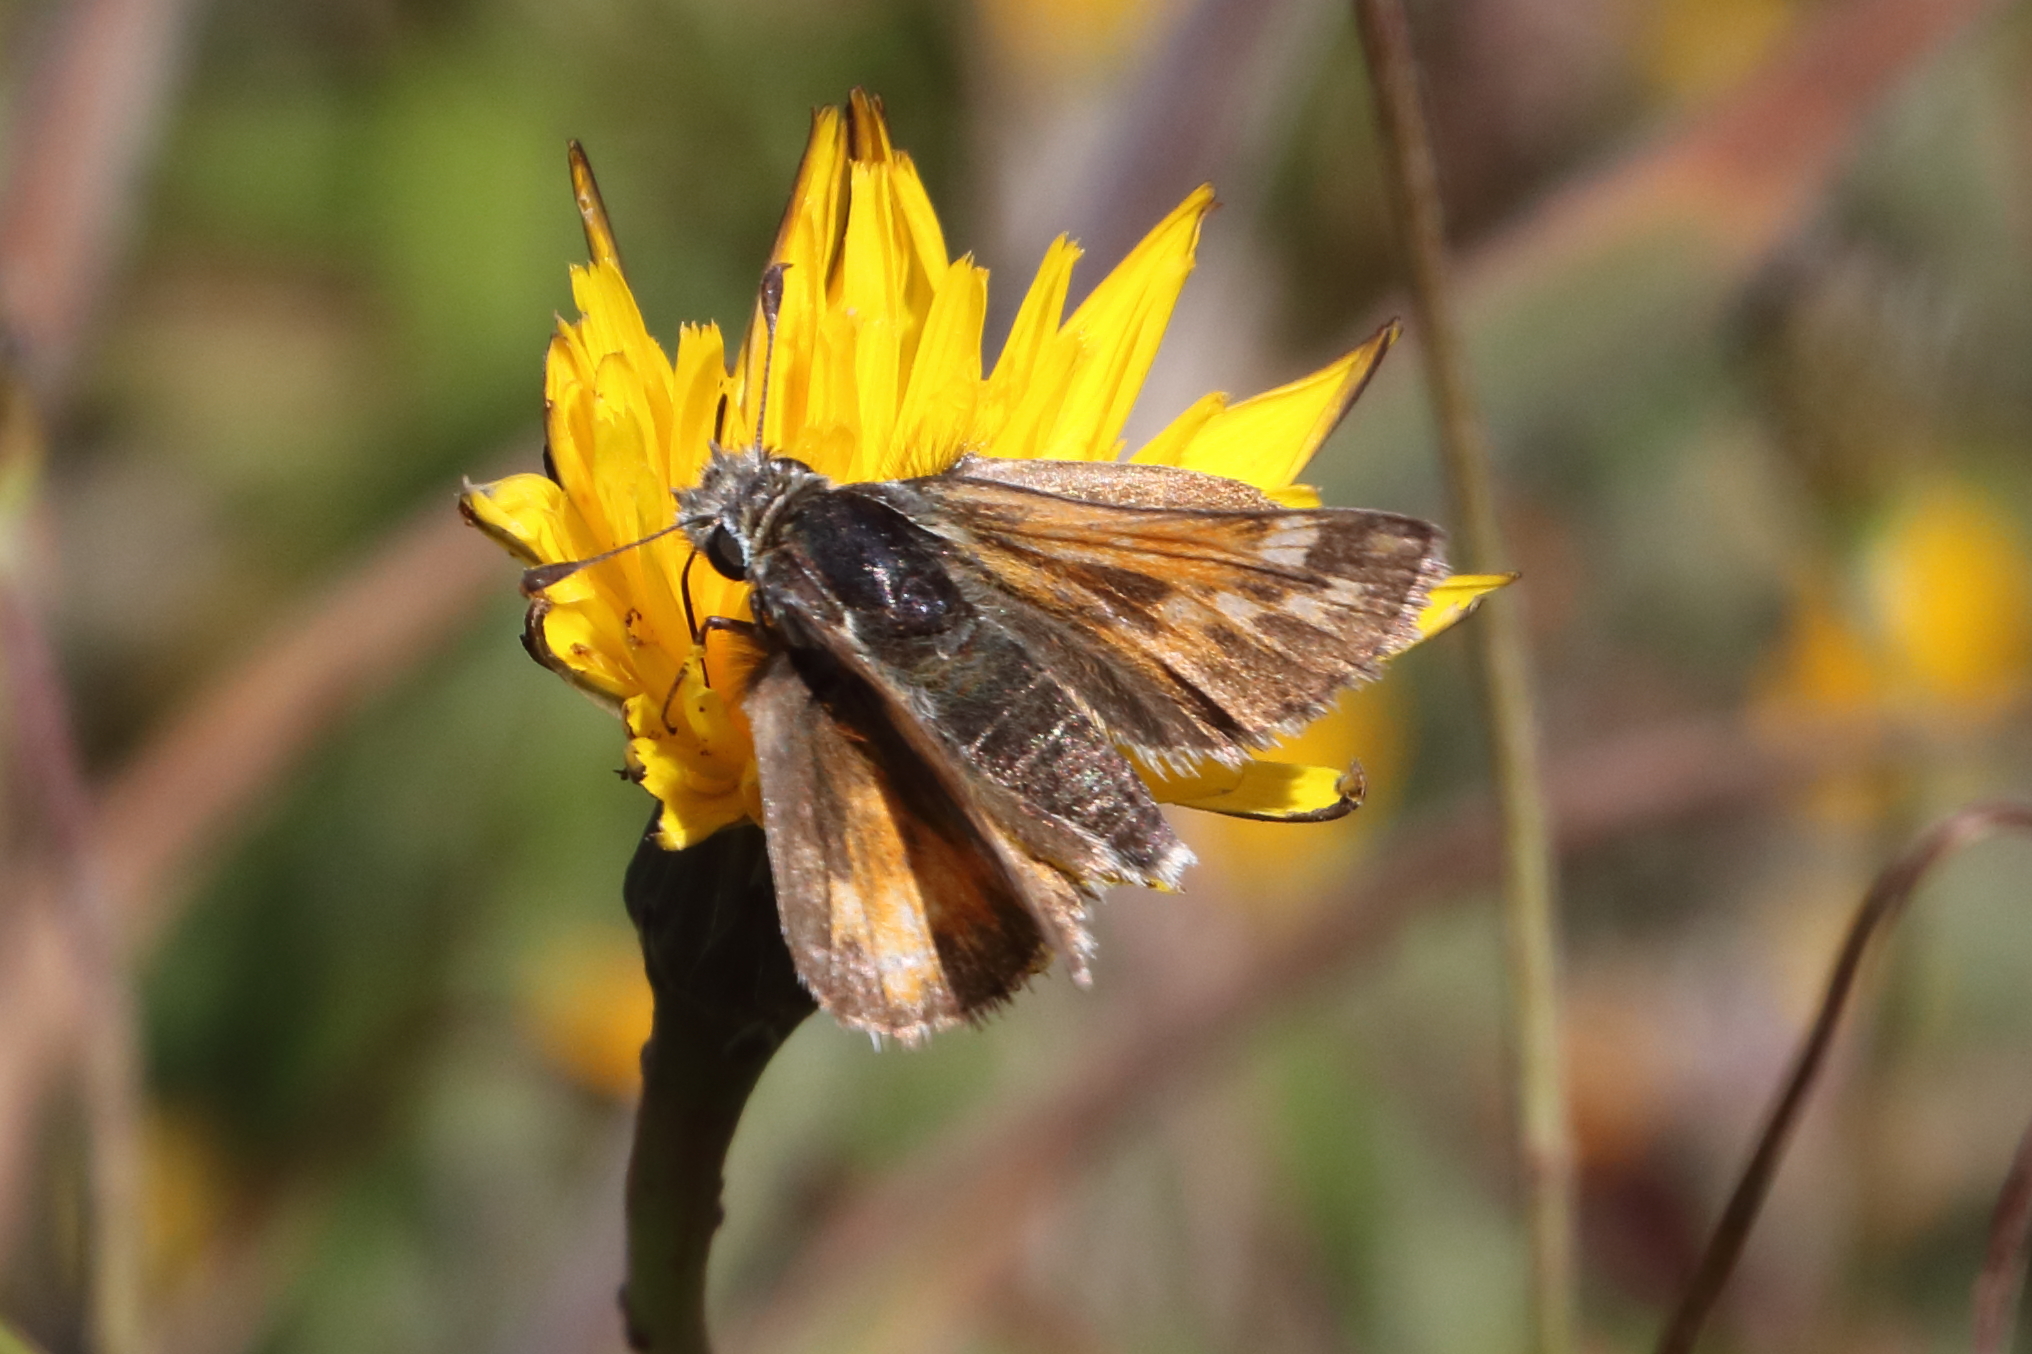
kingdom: Animalia
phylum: Arthropoda
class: Insecta
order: Lepidoptera
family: Hesperiidae
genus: Hesperia
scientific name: Hesperia juba
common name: Juba skipper
